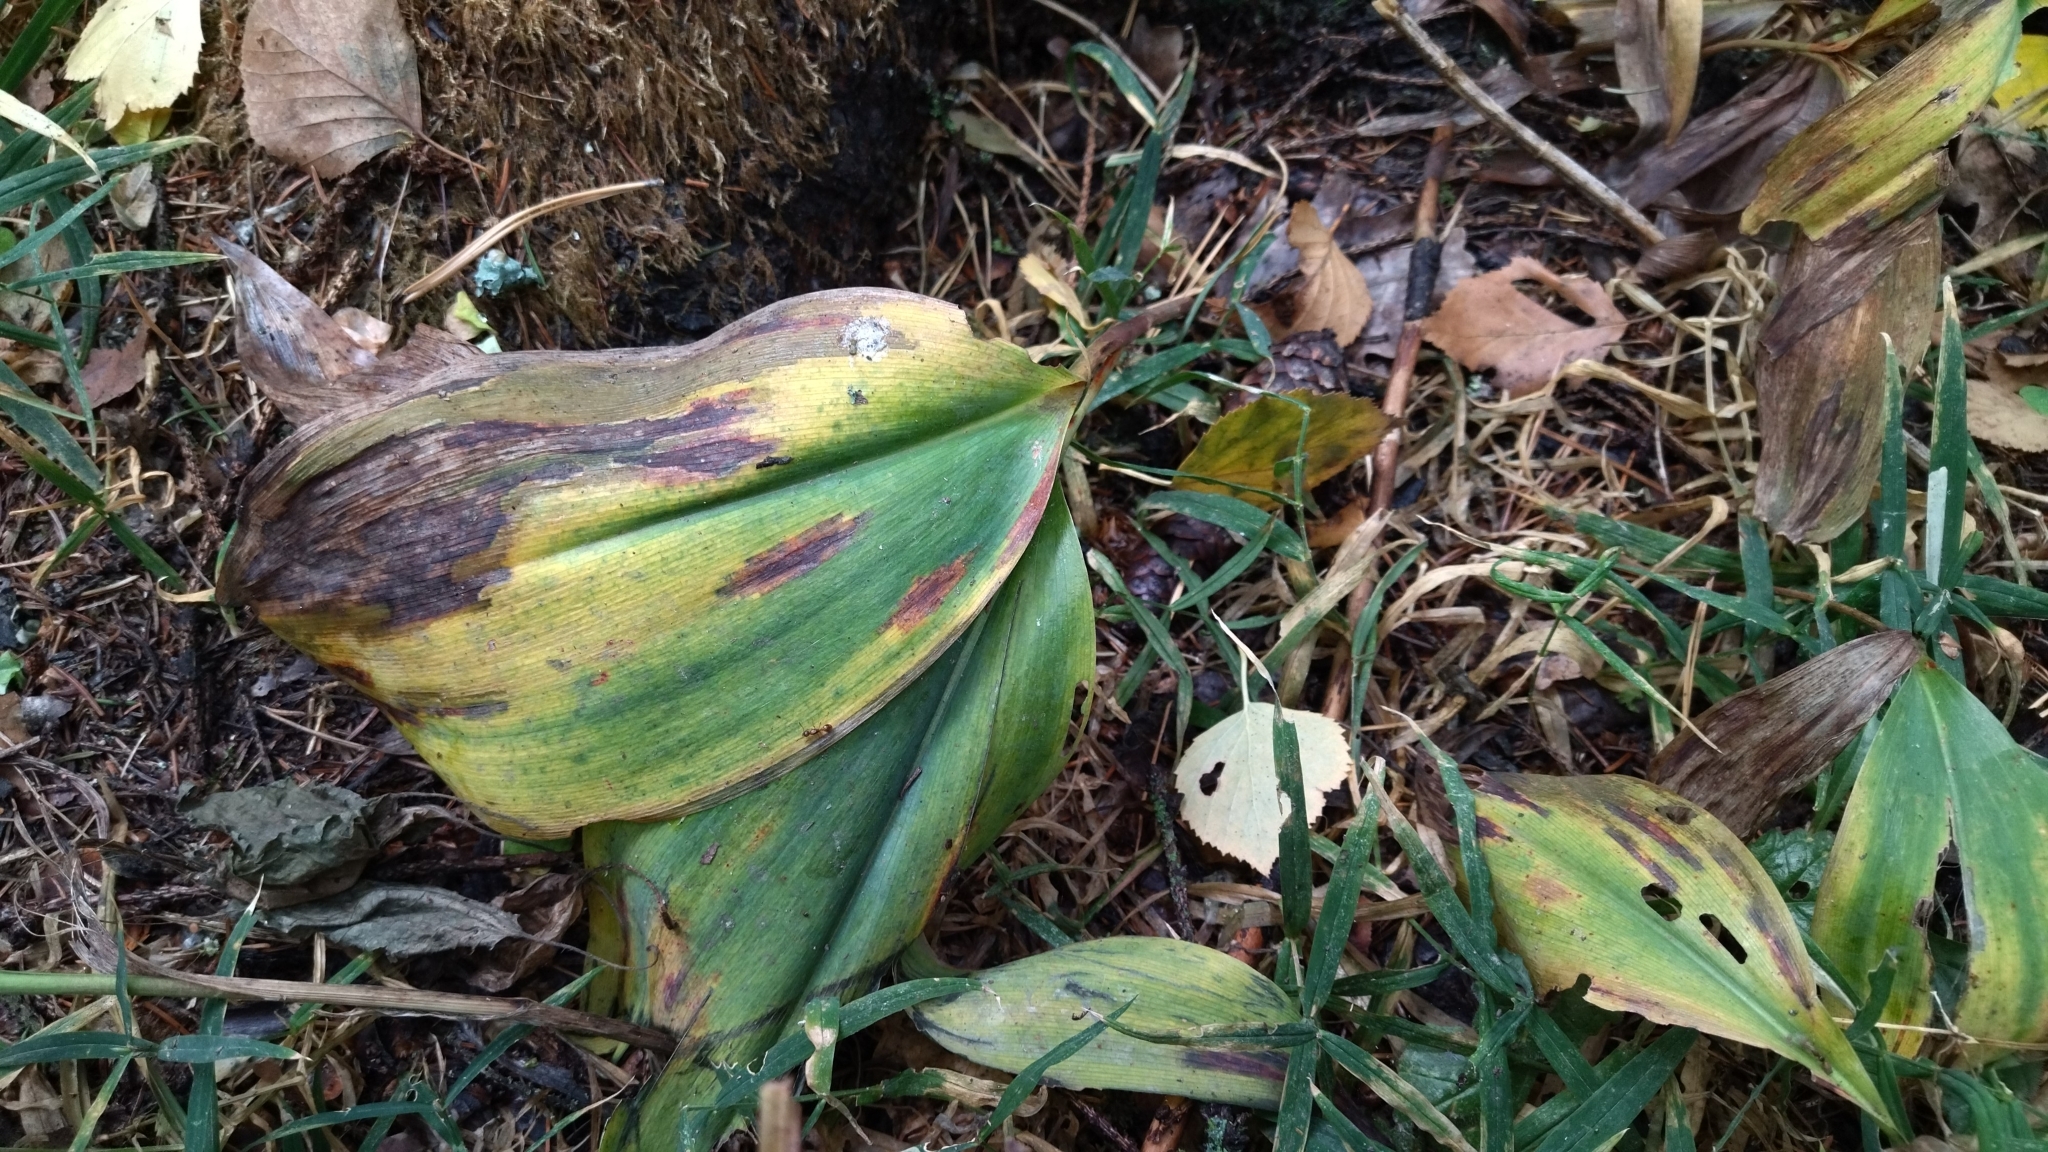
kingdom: Plantae
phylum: Tracheophyta
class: Liliopsida
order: Asparagales
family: Asparagaceae
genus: Convallaria
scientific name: Convallaria majalis
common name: Lily-of-the-valley
